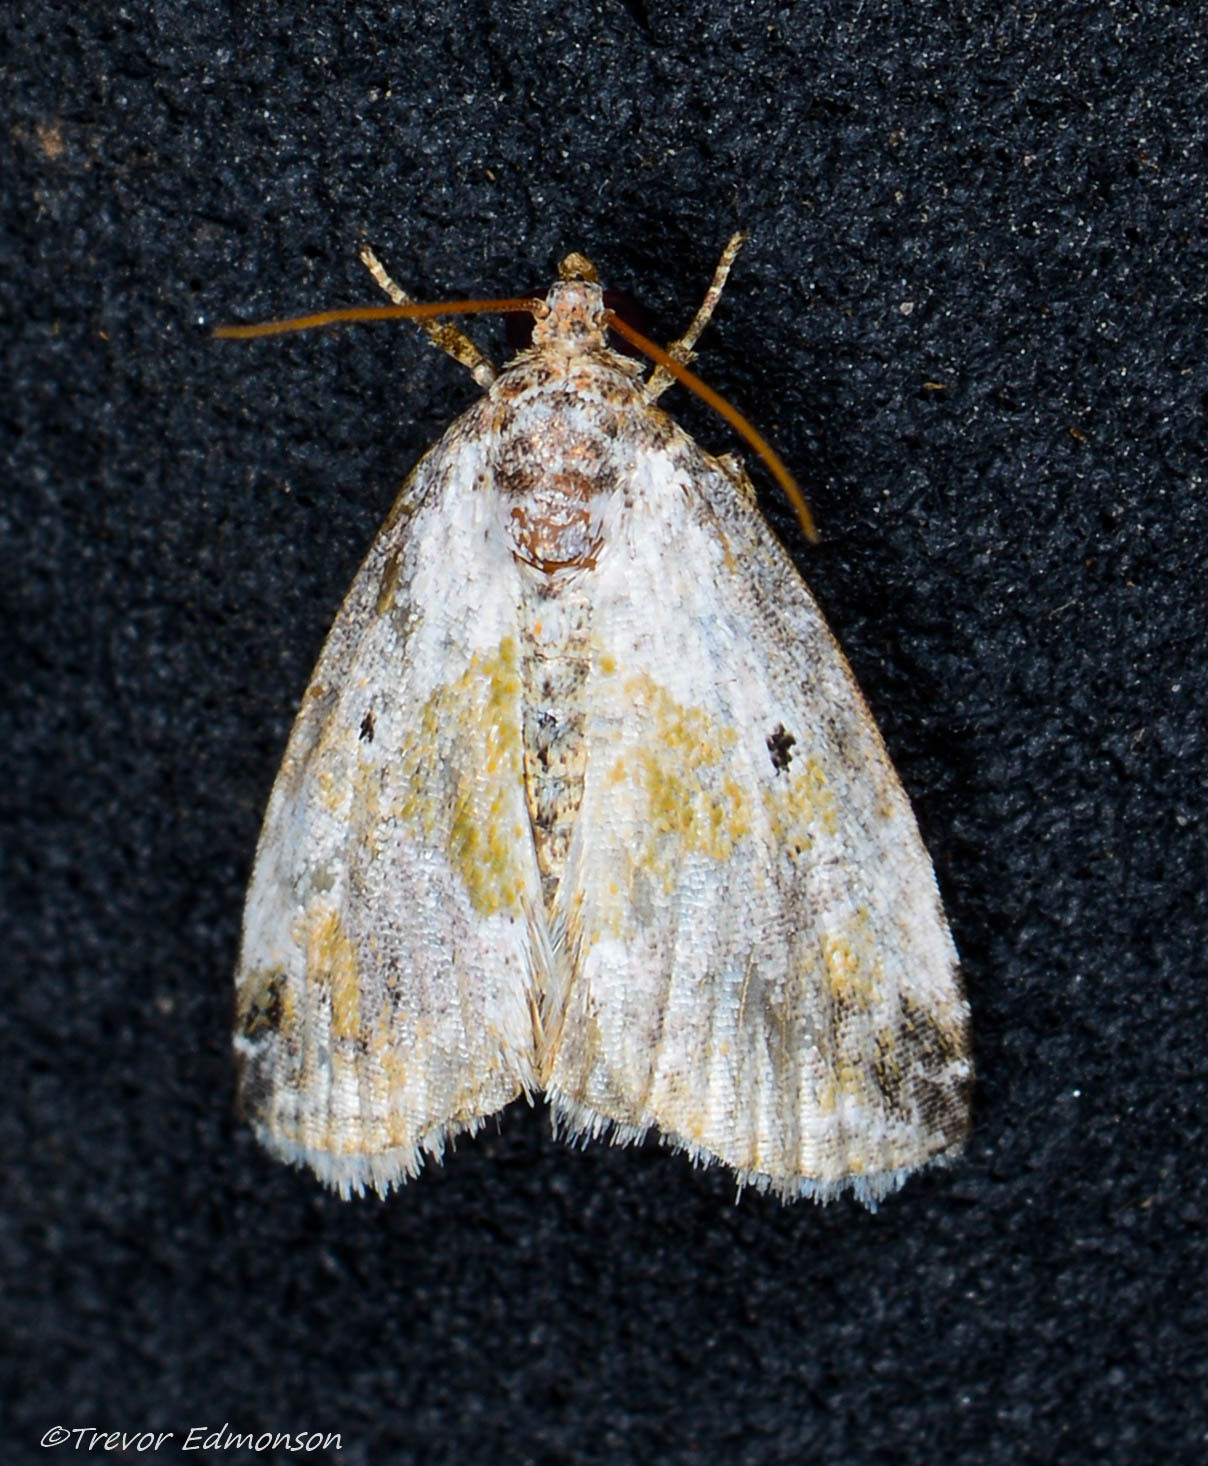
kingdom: Animalia
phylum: Arthropoda
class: Insecta
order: Lepidoptera
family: Noctuidae
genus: Maliattha
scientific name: Maliattha synochitis
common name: Black-dotted glyph
